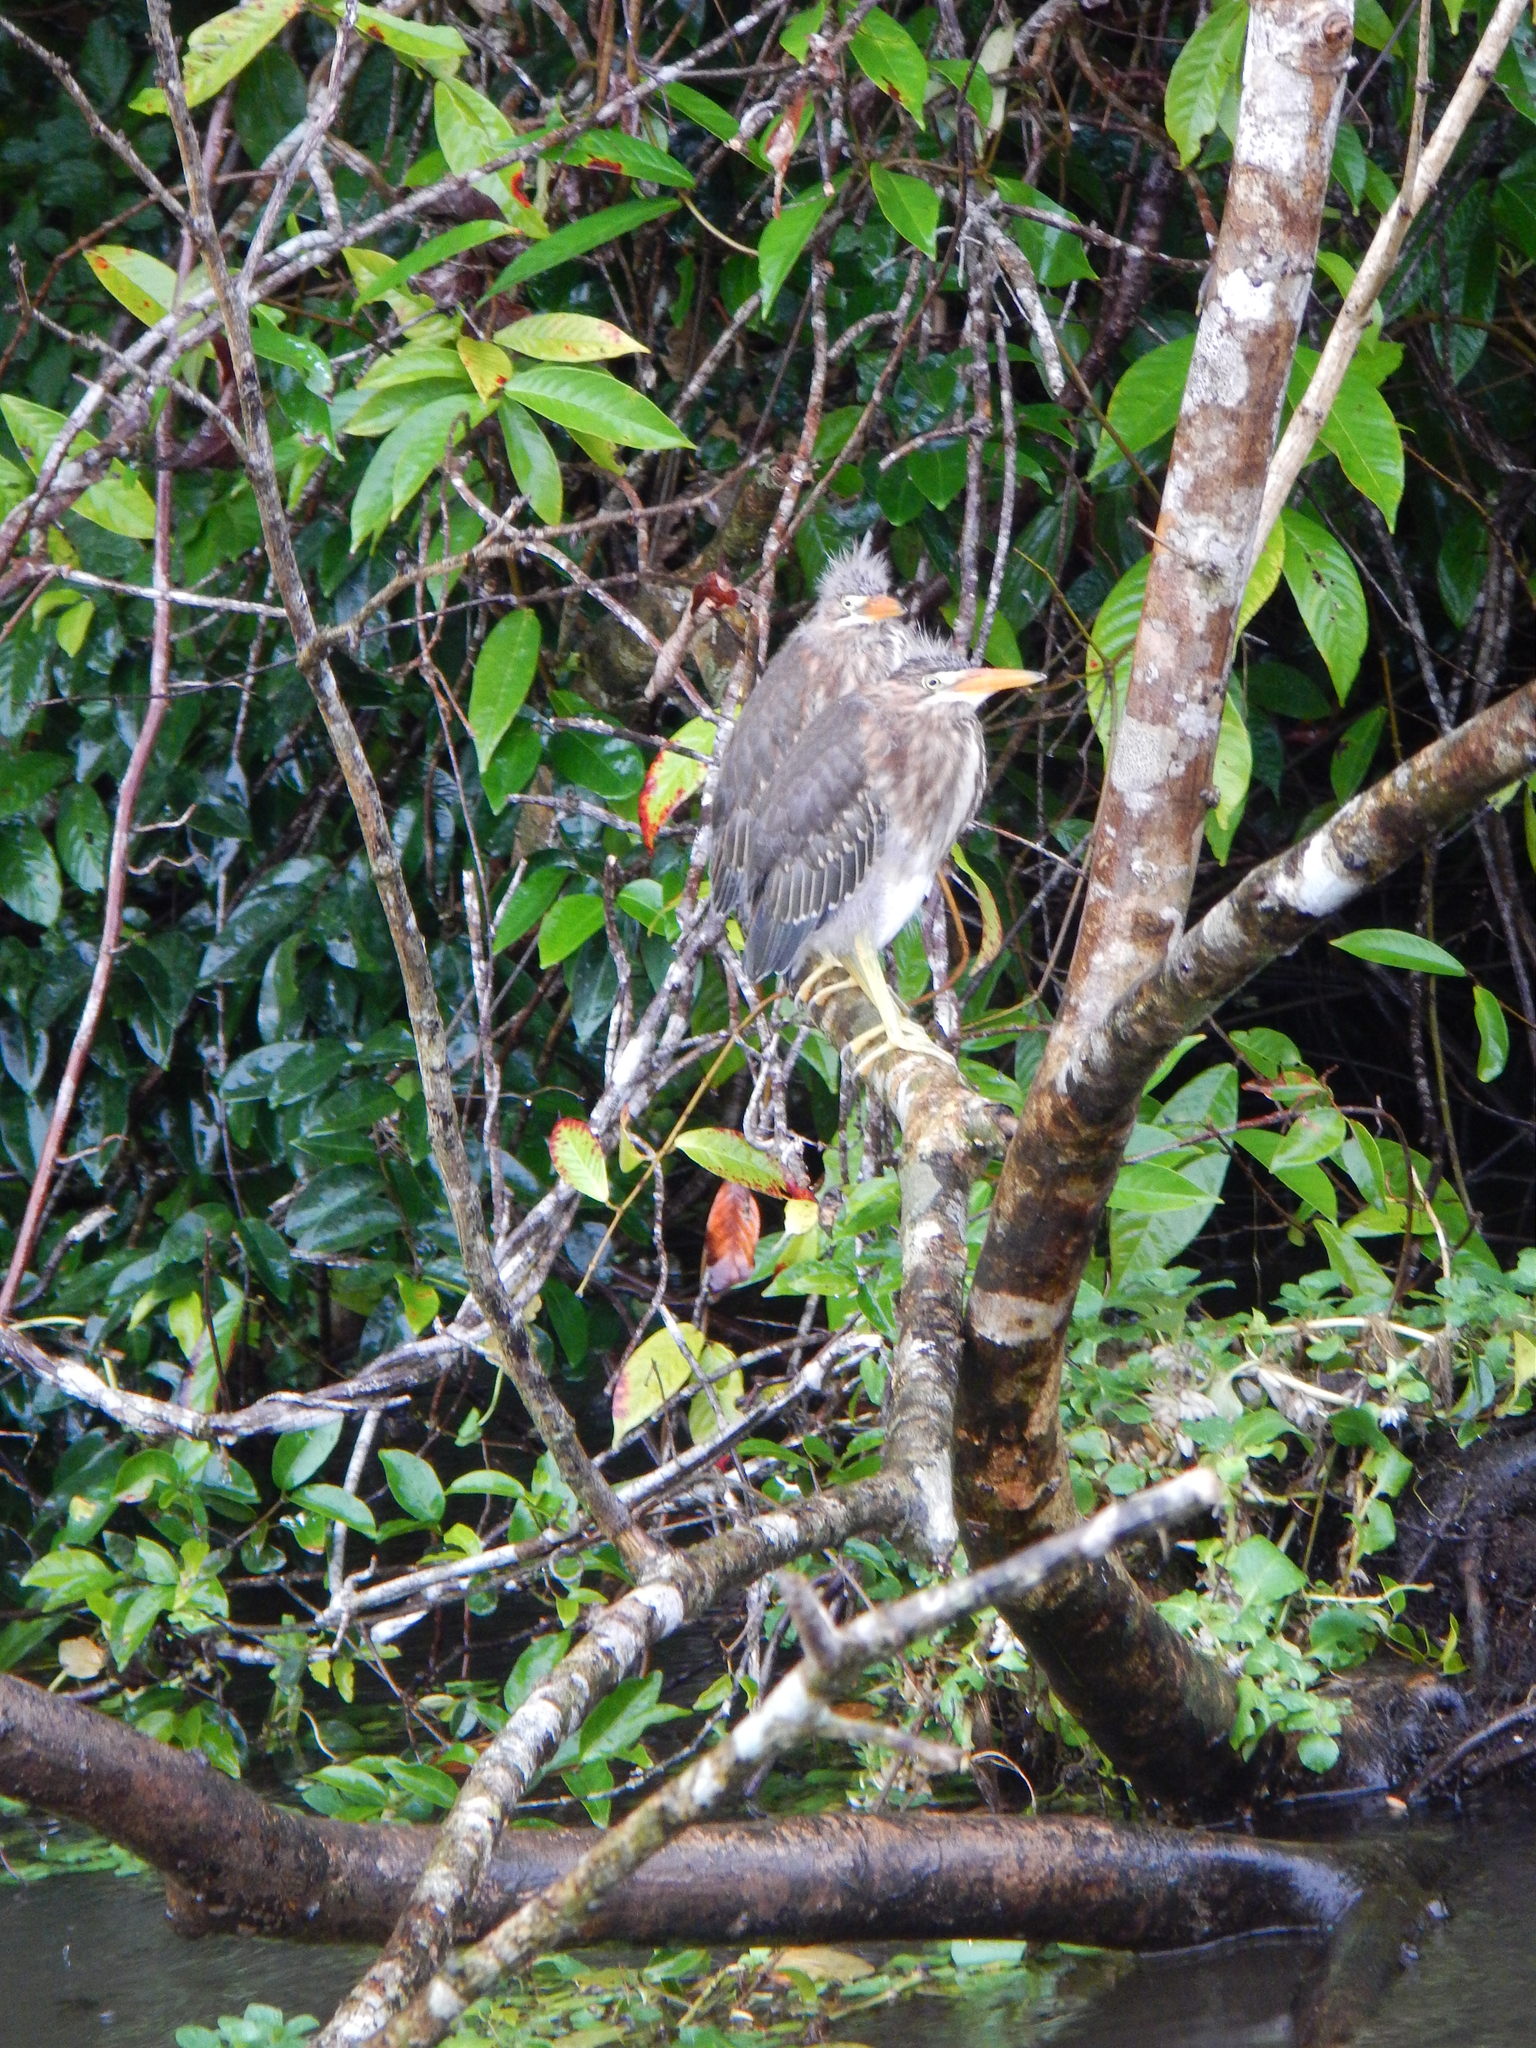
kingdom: Animalia
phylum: Chordata
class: Aves
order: Pelecaniformes
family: Ardeidae
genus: Butorides
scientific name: Butorides virescens
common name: Green heron
